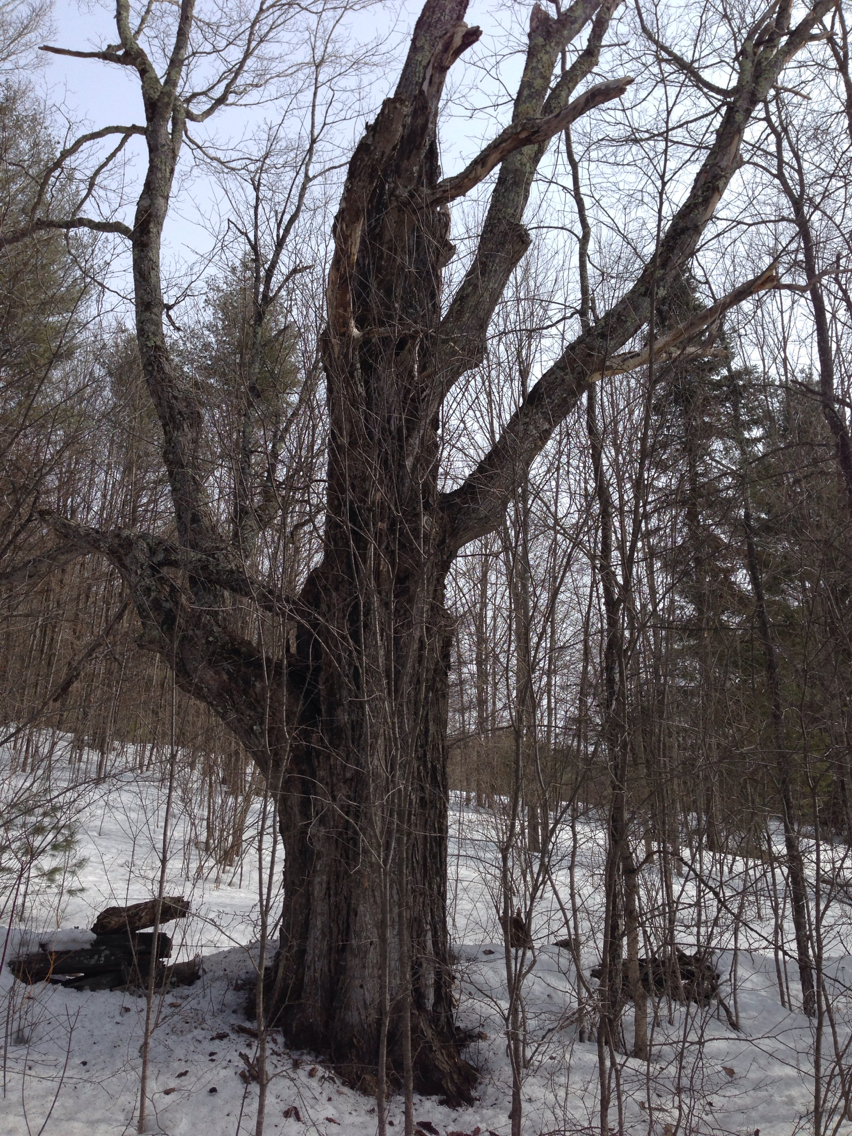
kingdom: Plantae
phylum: Tracheophyta
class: Magnoliopsida
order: Sapindales
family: Sapindaceae
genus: Acer
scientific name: Acer saccharum
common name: Sugar maple
